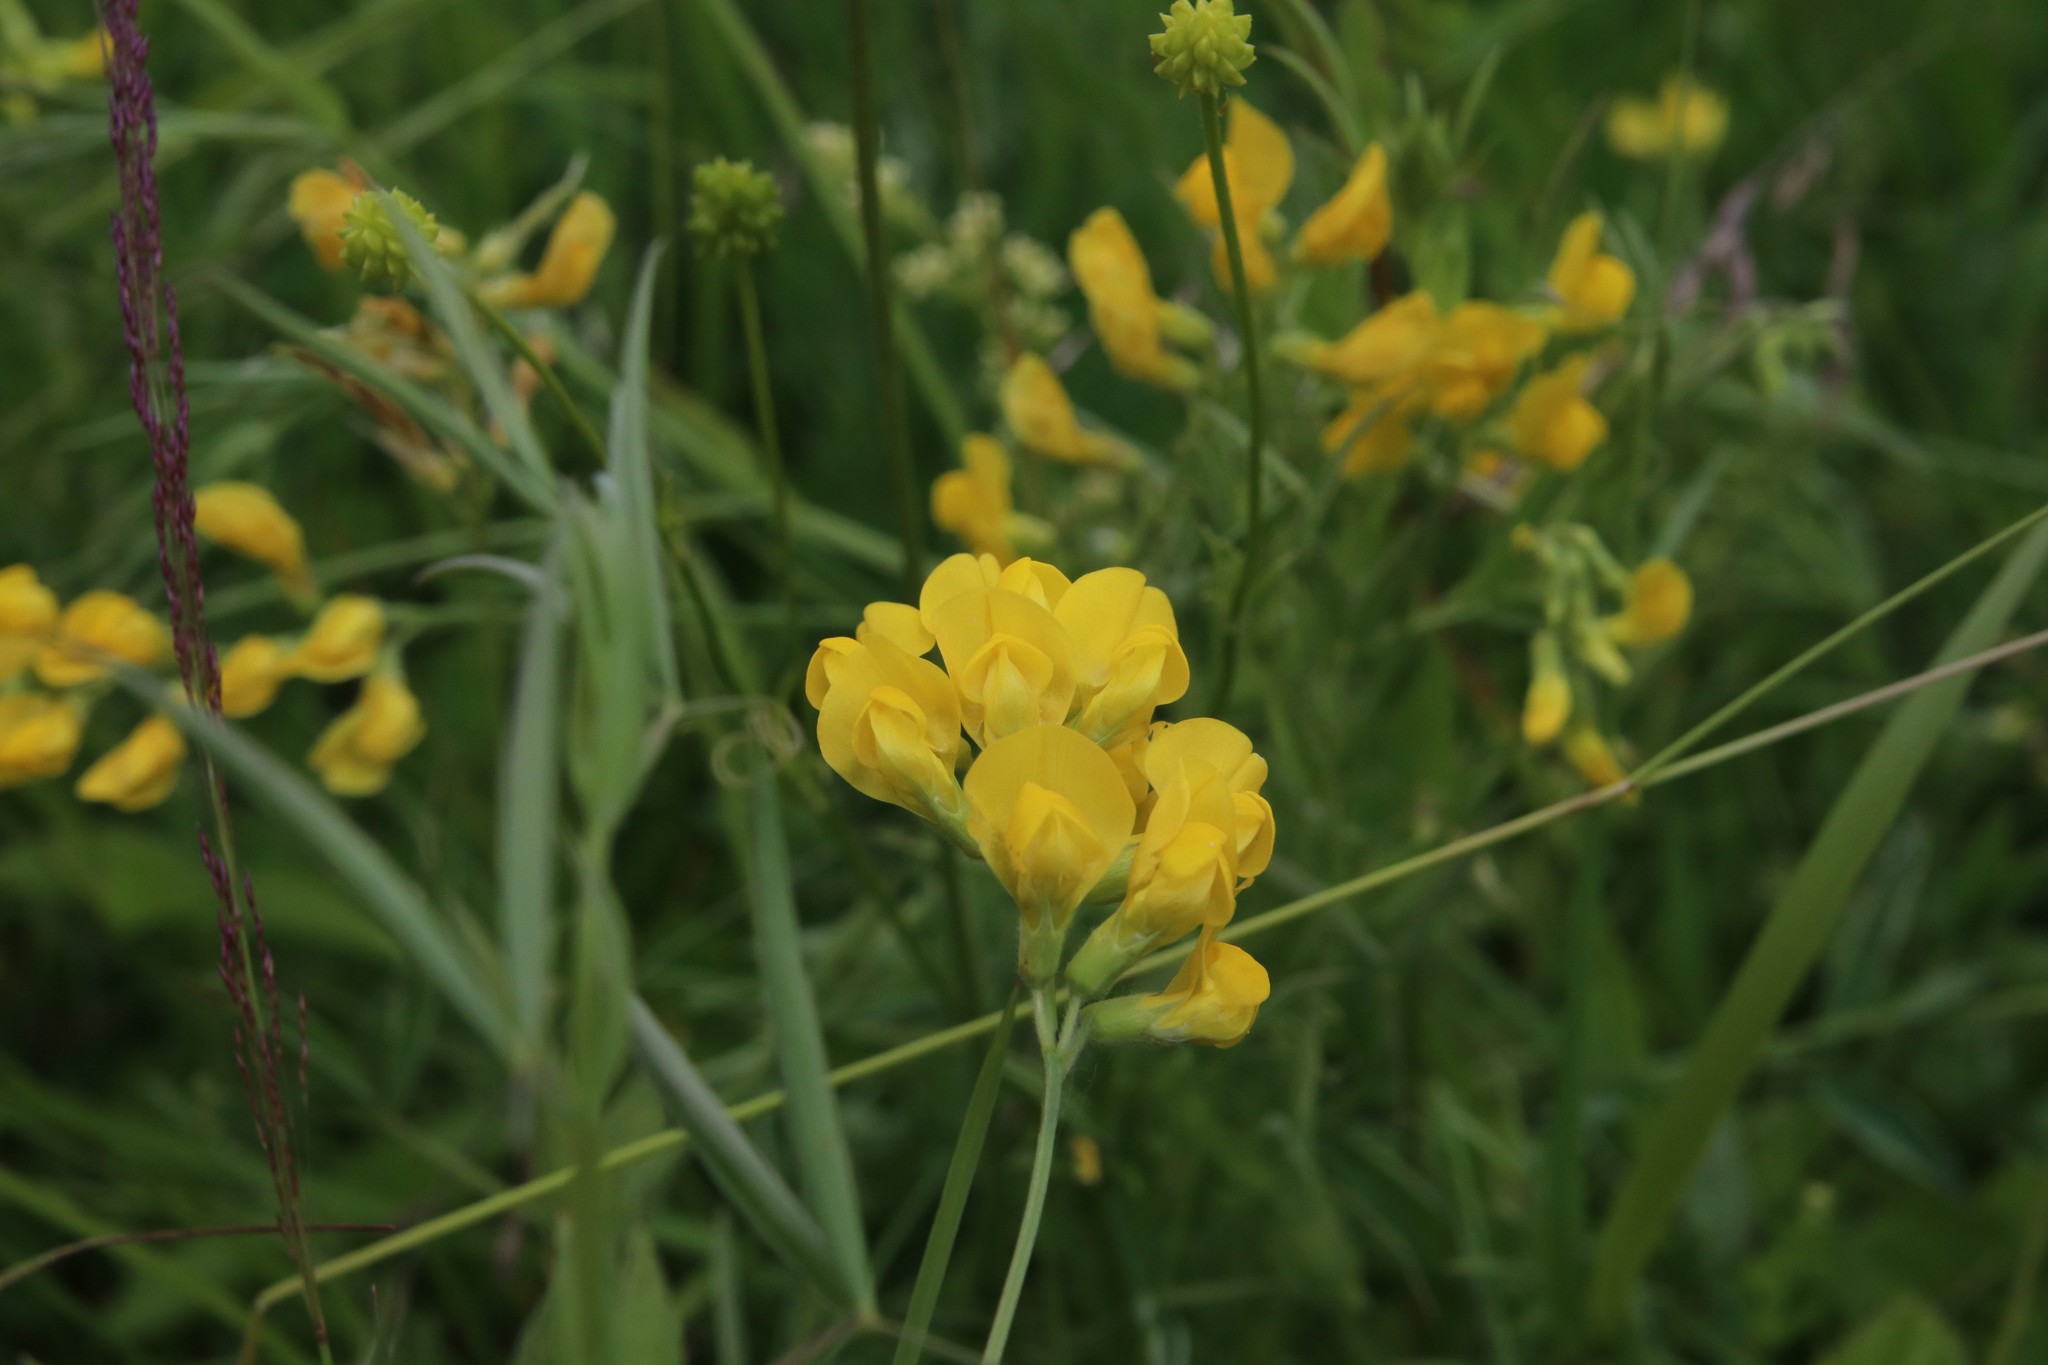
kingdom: Plantae
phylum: Tracheophyta
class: Magnoliopsida
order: Fabales
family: Fabaceae
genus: Lathyrus
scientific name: Lathyrus pratensis
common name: Meadow vetchling
